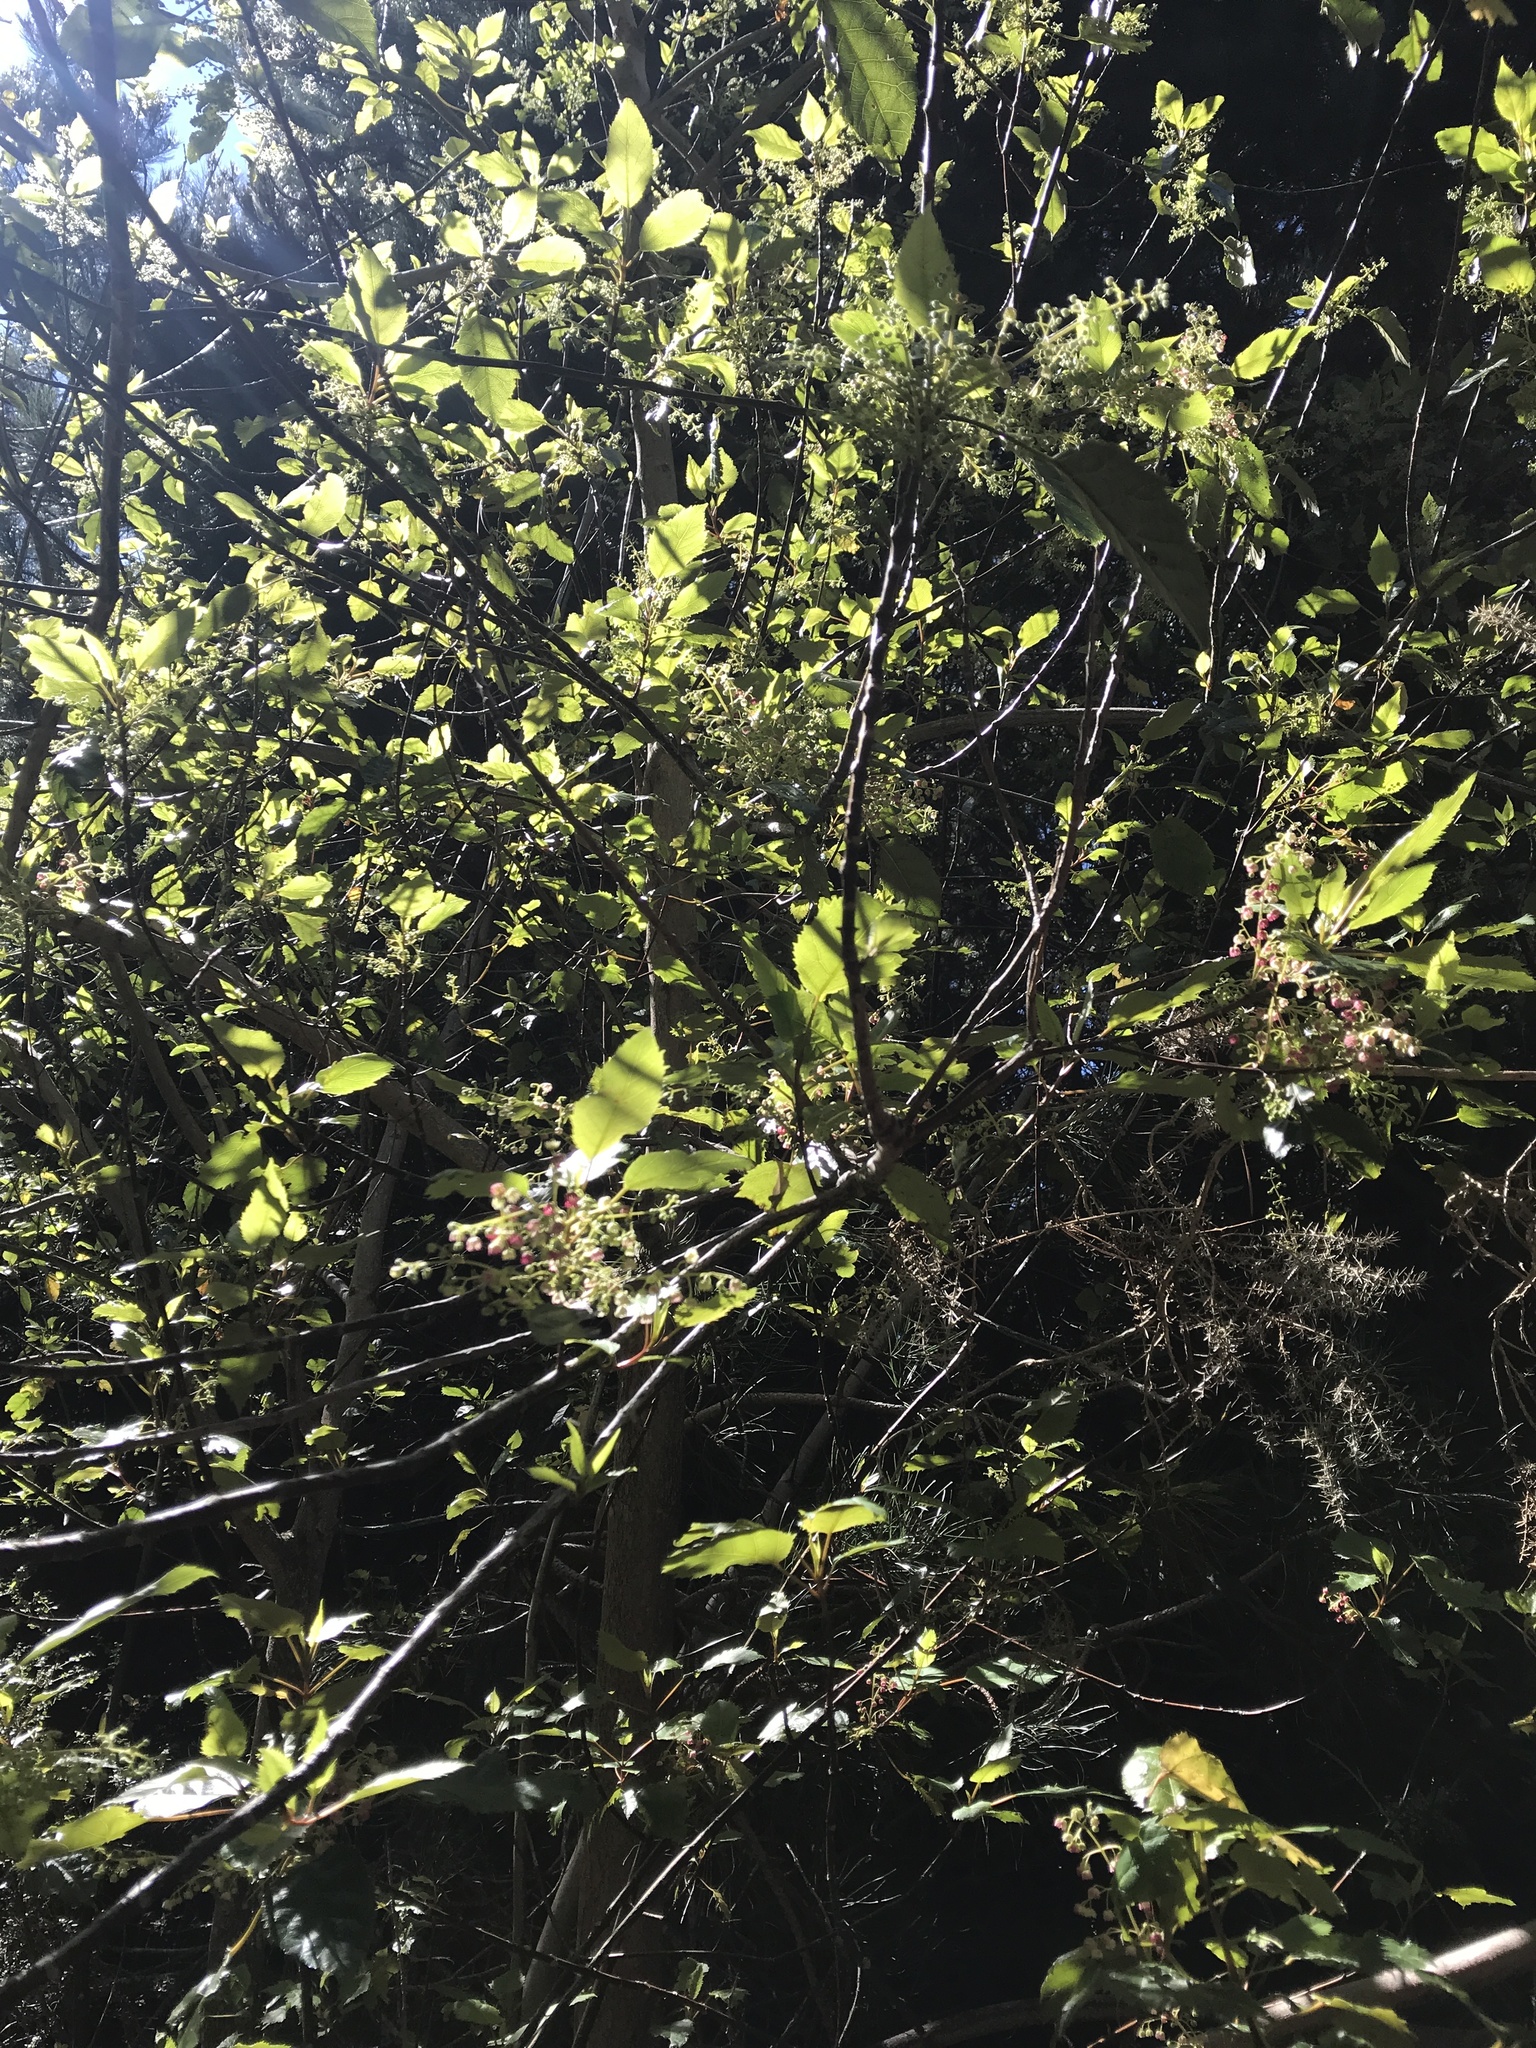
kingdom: Plantae
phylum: Tracheophyta
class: Magnoliopsida
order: Oxalidales
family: Elaeocarpaceae
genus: Aristotelia
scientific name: Aristotelia serrata
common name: New zealand wineberry
